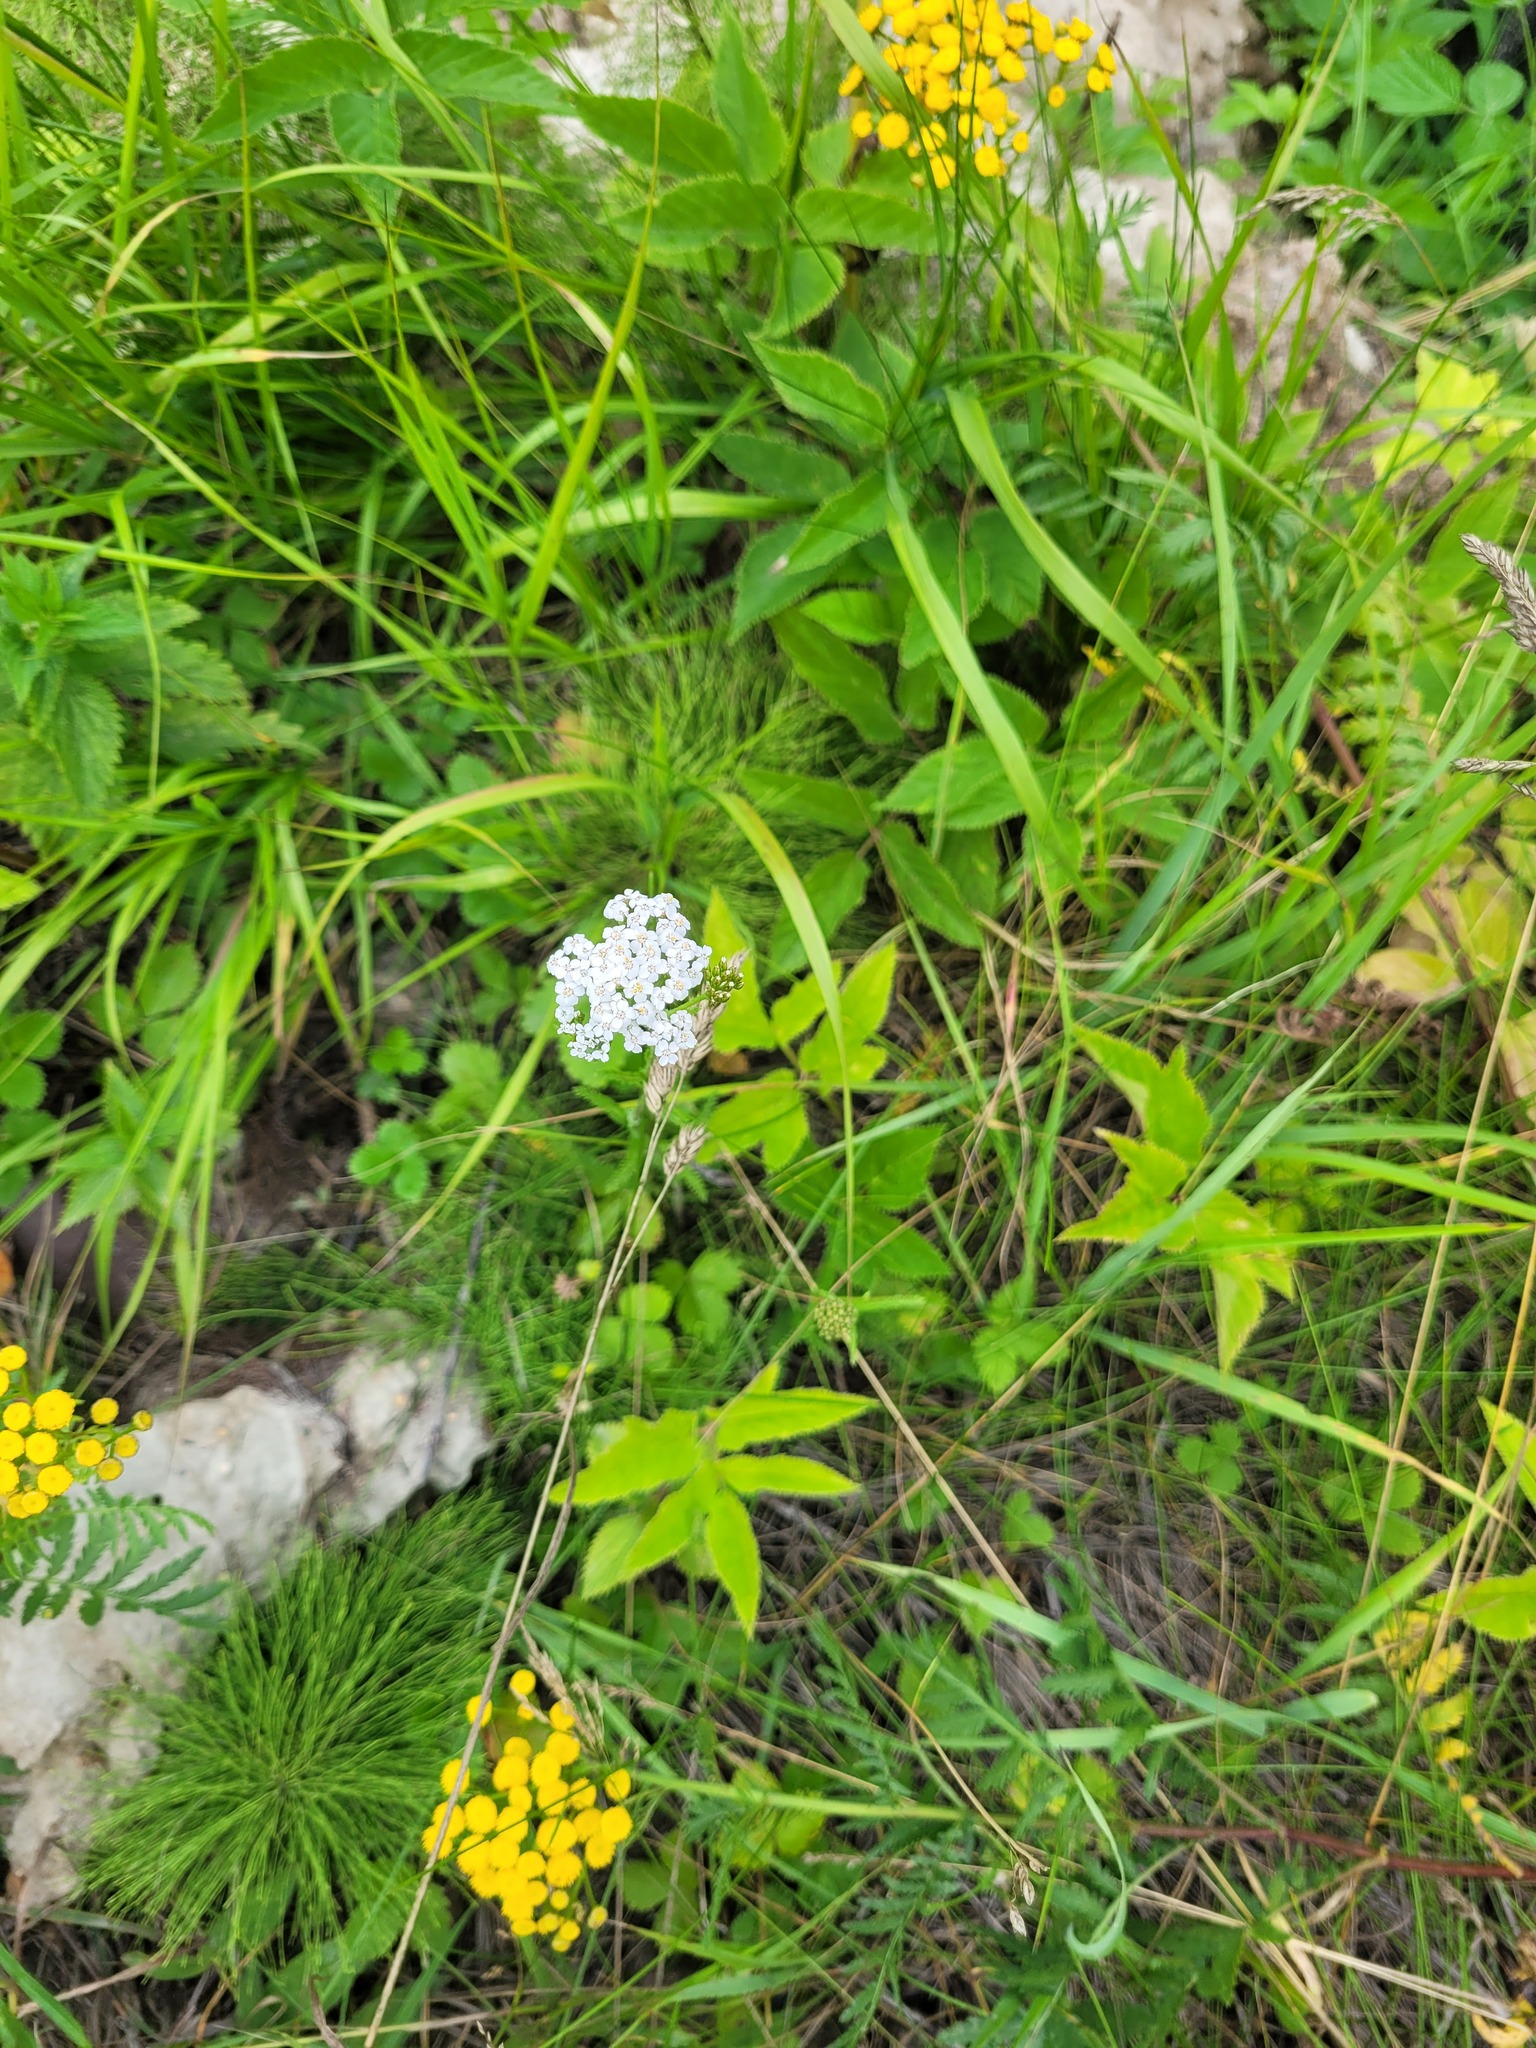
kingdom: Plantae
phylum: Tracheophyta
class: Liliopsida
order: Poales
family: Poaceae
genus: Dactylis
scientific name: Dactylis glomerata
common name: Orchardgrass
